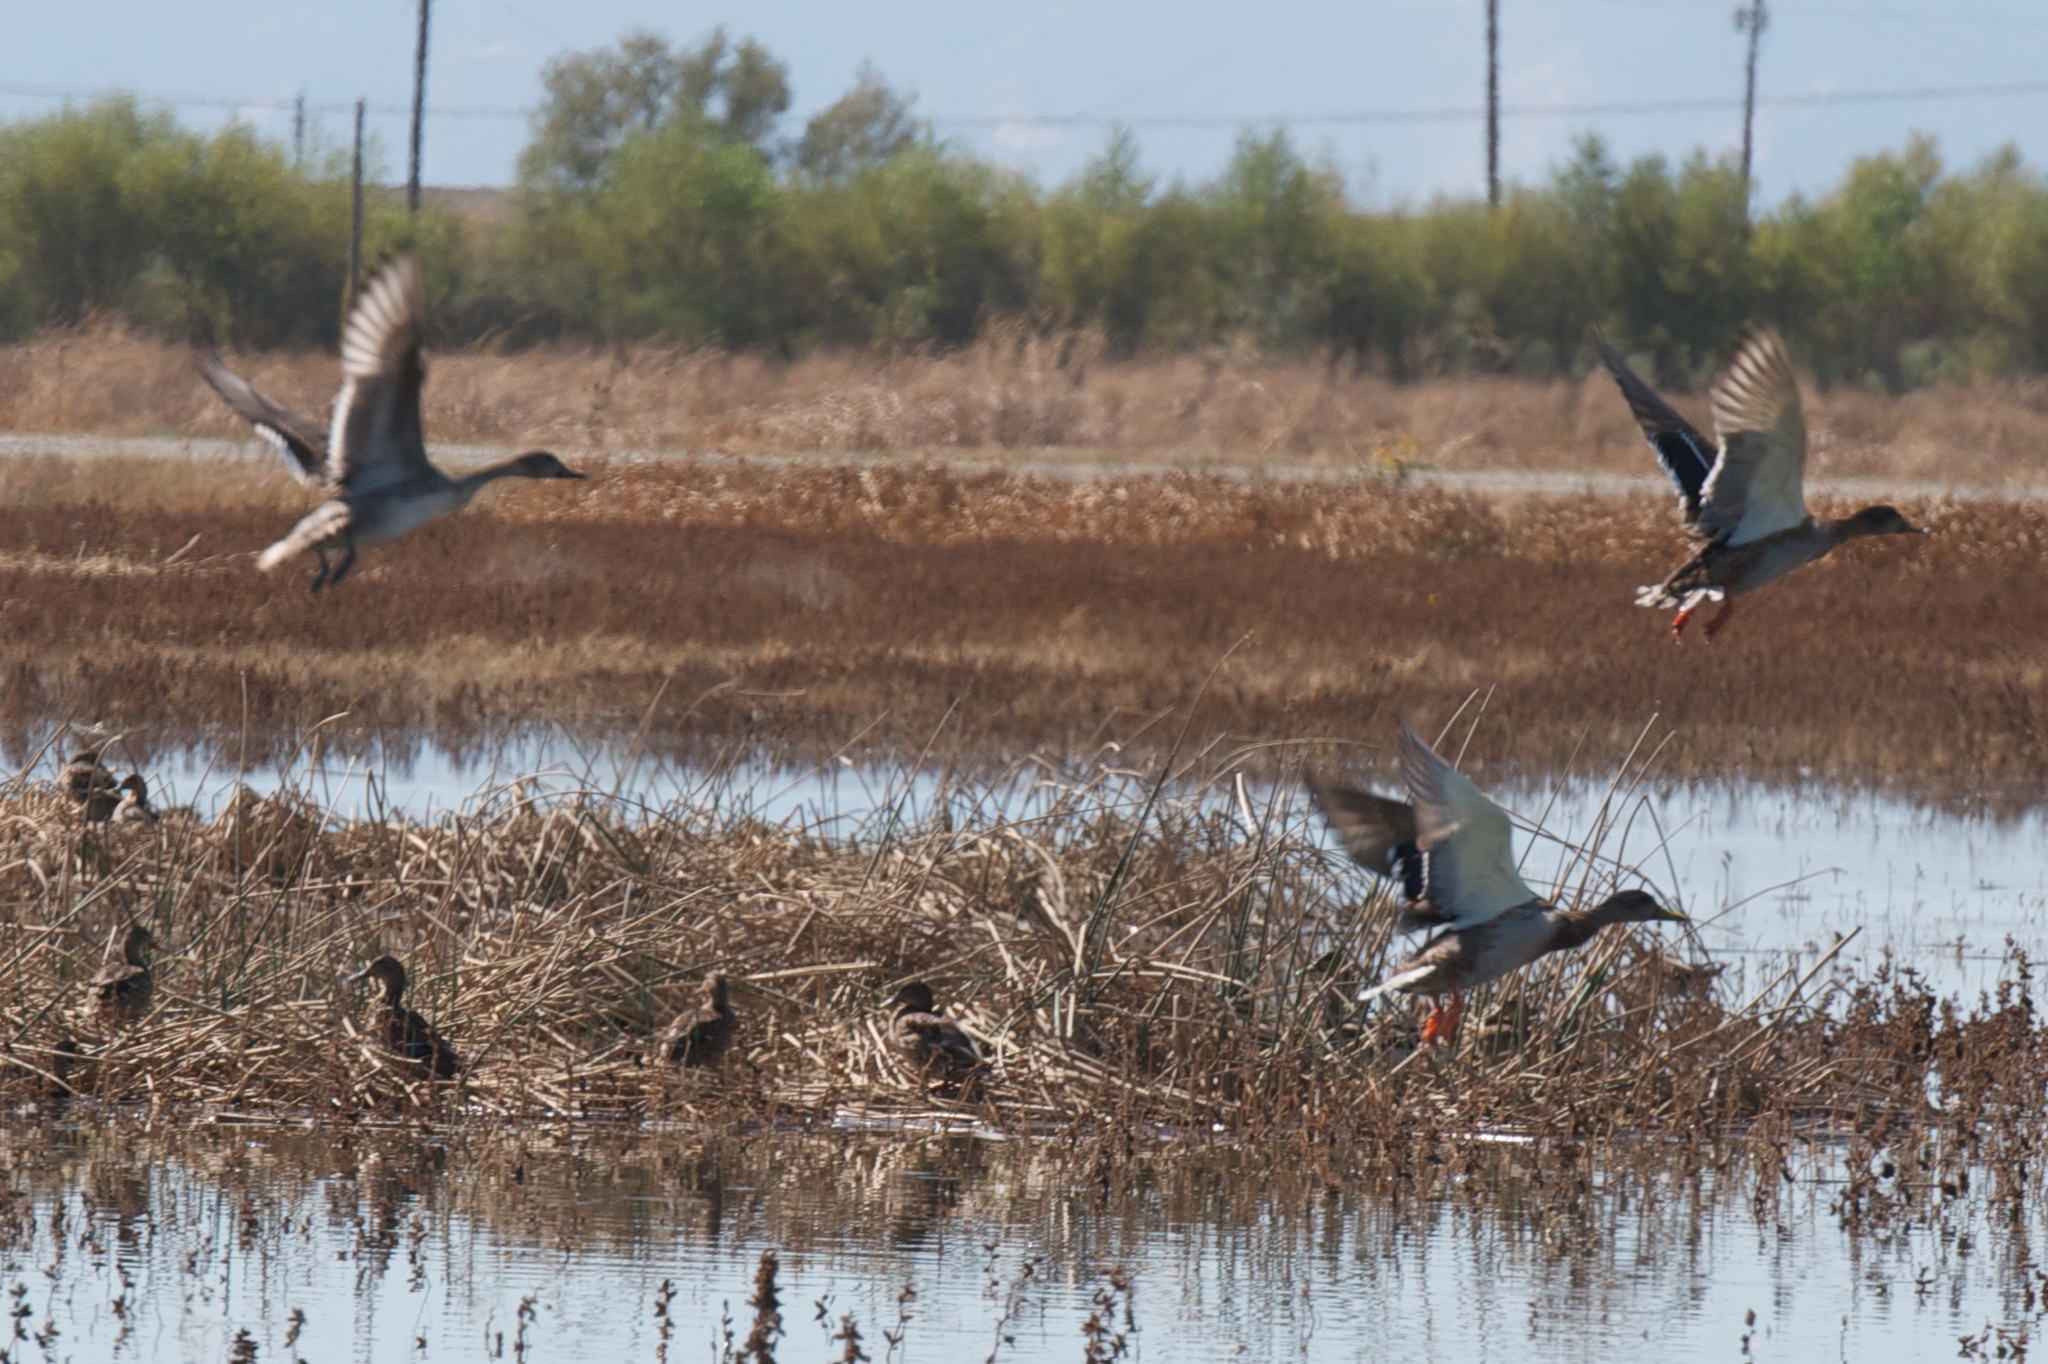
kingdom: Animalia
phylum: Chordata
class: Aves
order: Pelecaniformes
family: Threskiornithidae
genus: Plegadis
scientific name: Plegadis chihi
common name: White-faced ibis
